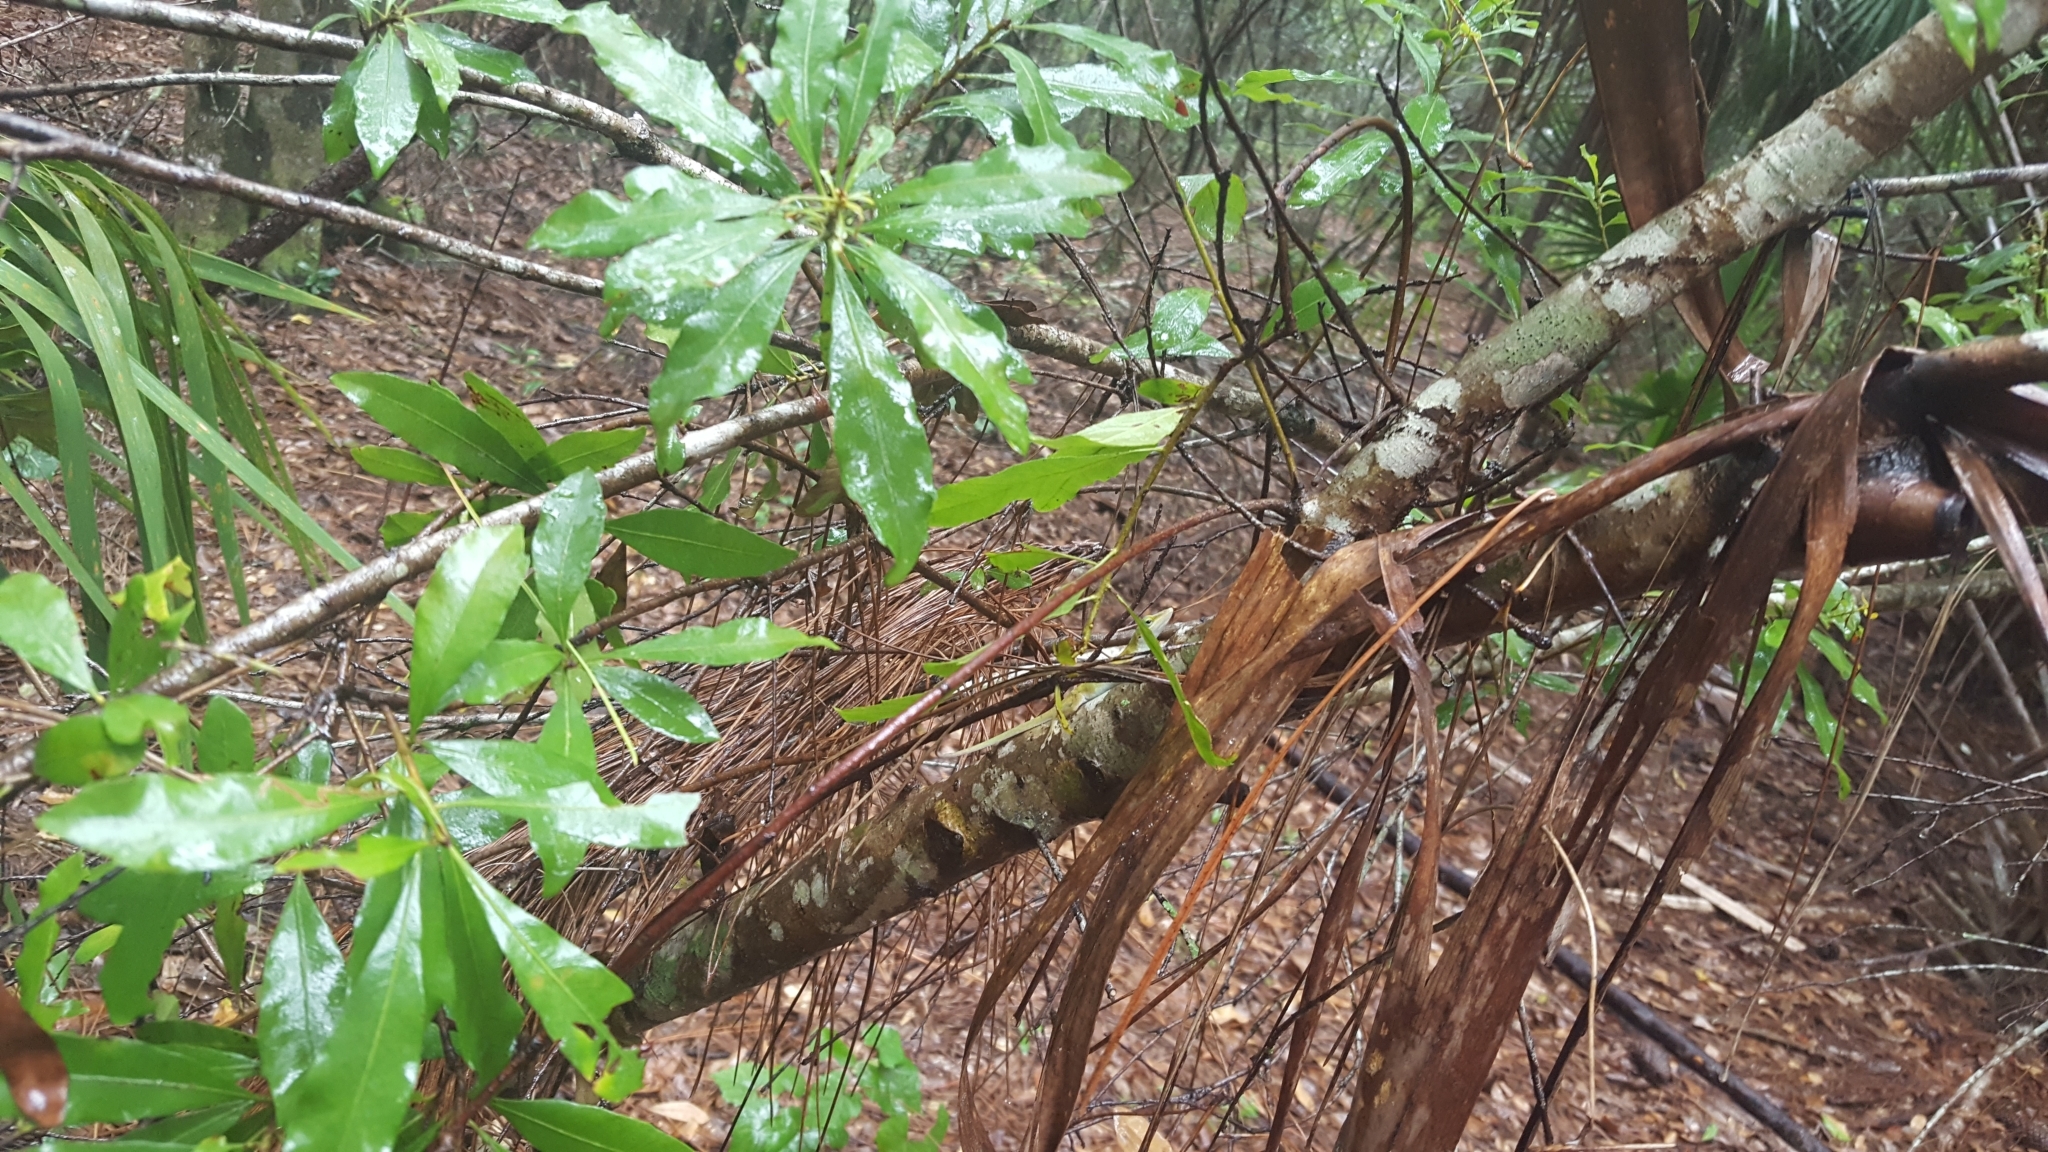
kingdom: Animalia
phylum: Chordata
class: Squamata
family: Dactyloidae
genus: Anolis
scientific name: Anolis carolinensis
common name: Green anole
